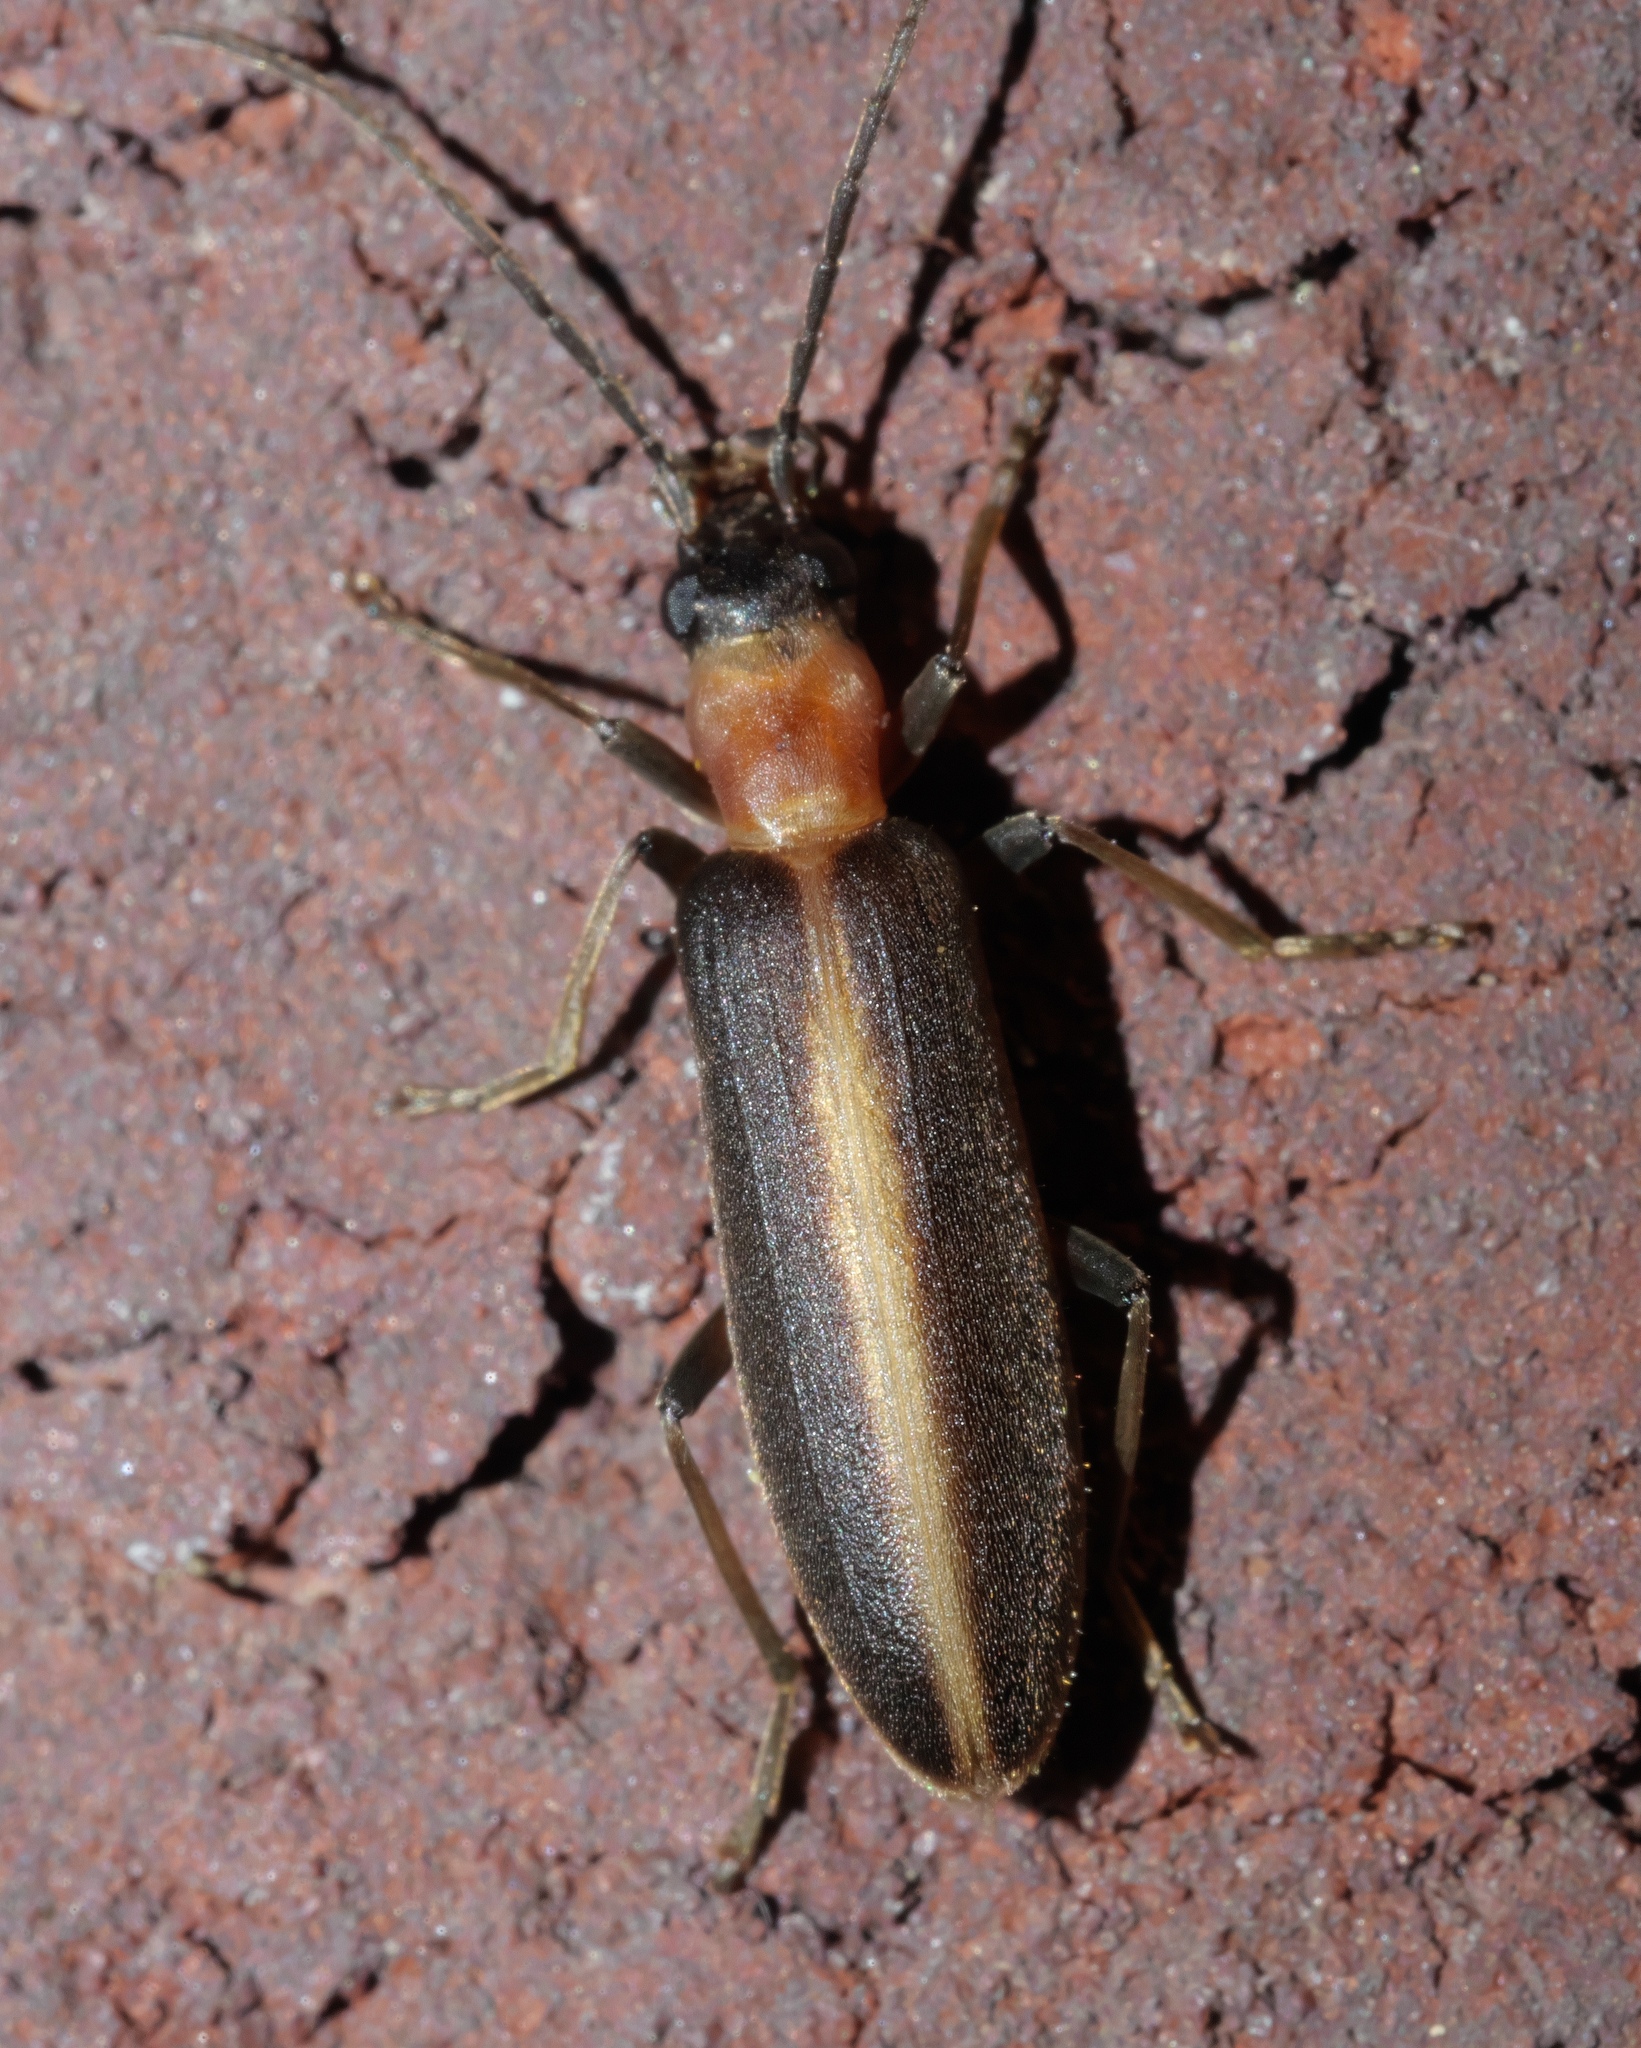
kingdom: Animalia
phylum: Arthropoda
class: Insecta
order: Coleoptera
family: Oedemeridae
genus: Oxycopis
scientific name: Oxycopis mimetica
